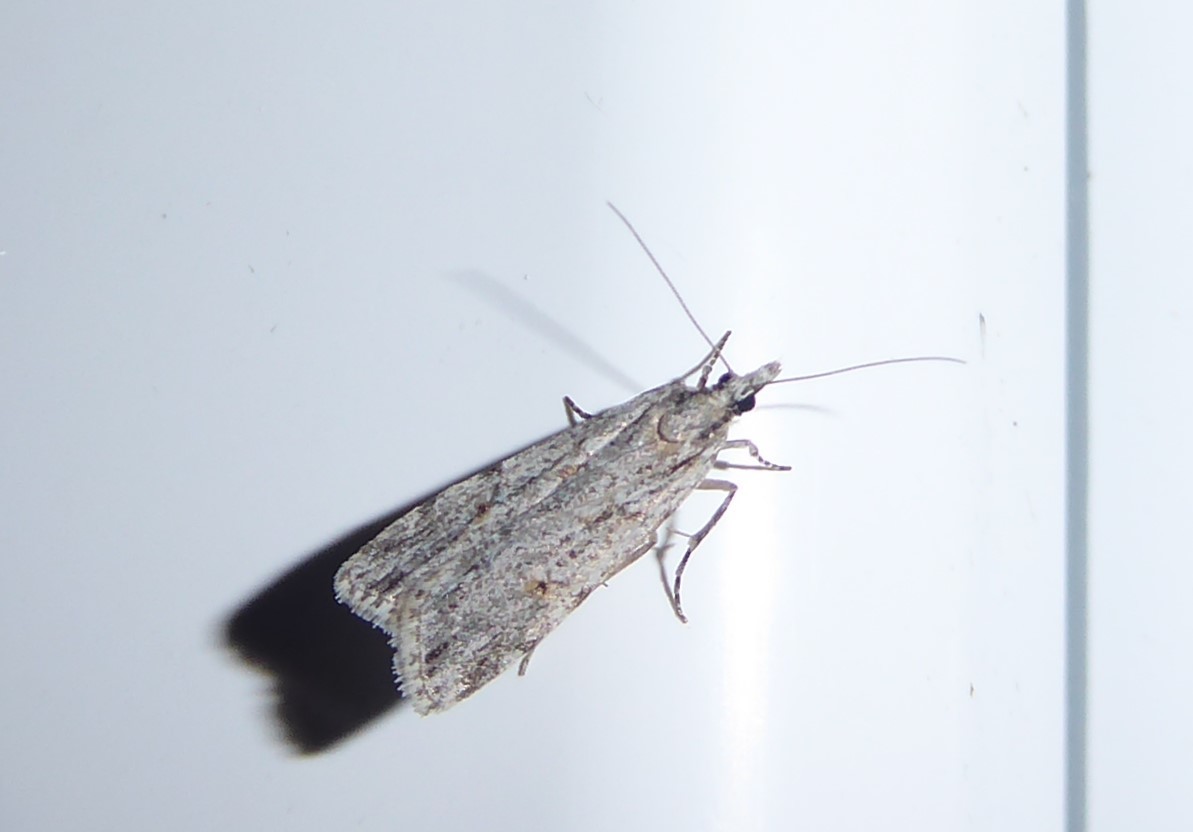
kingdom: Animalia
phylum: Arthropoda
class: Insecta
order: Lepidoptera
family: Crambidae
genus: Scoparia
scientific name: Scoparia chalicodes
